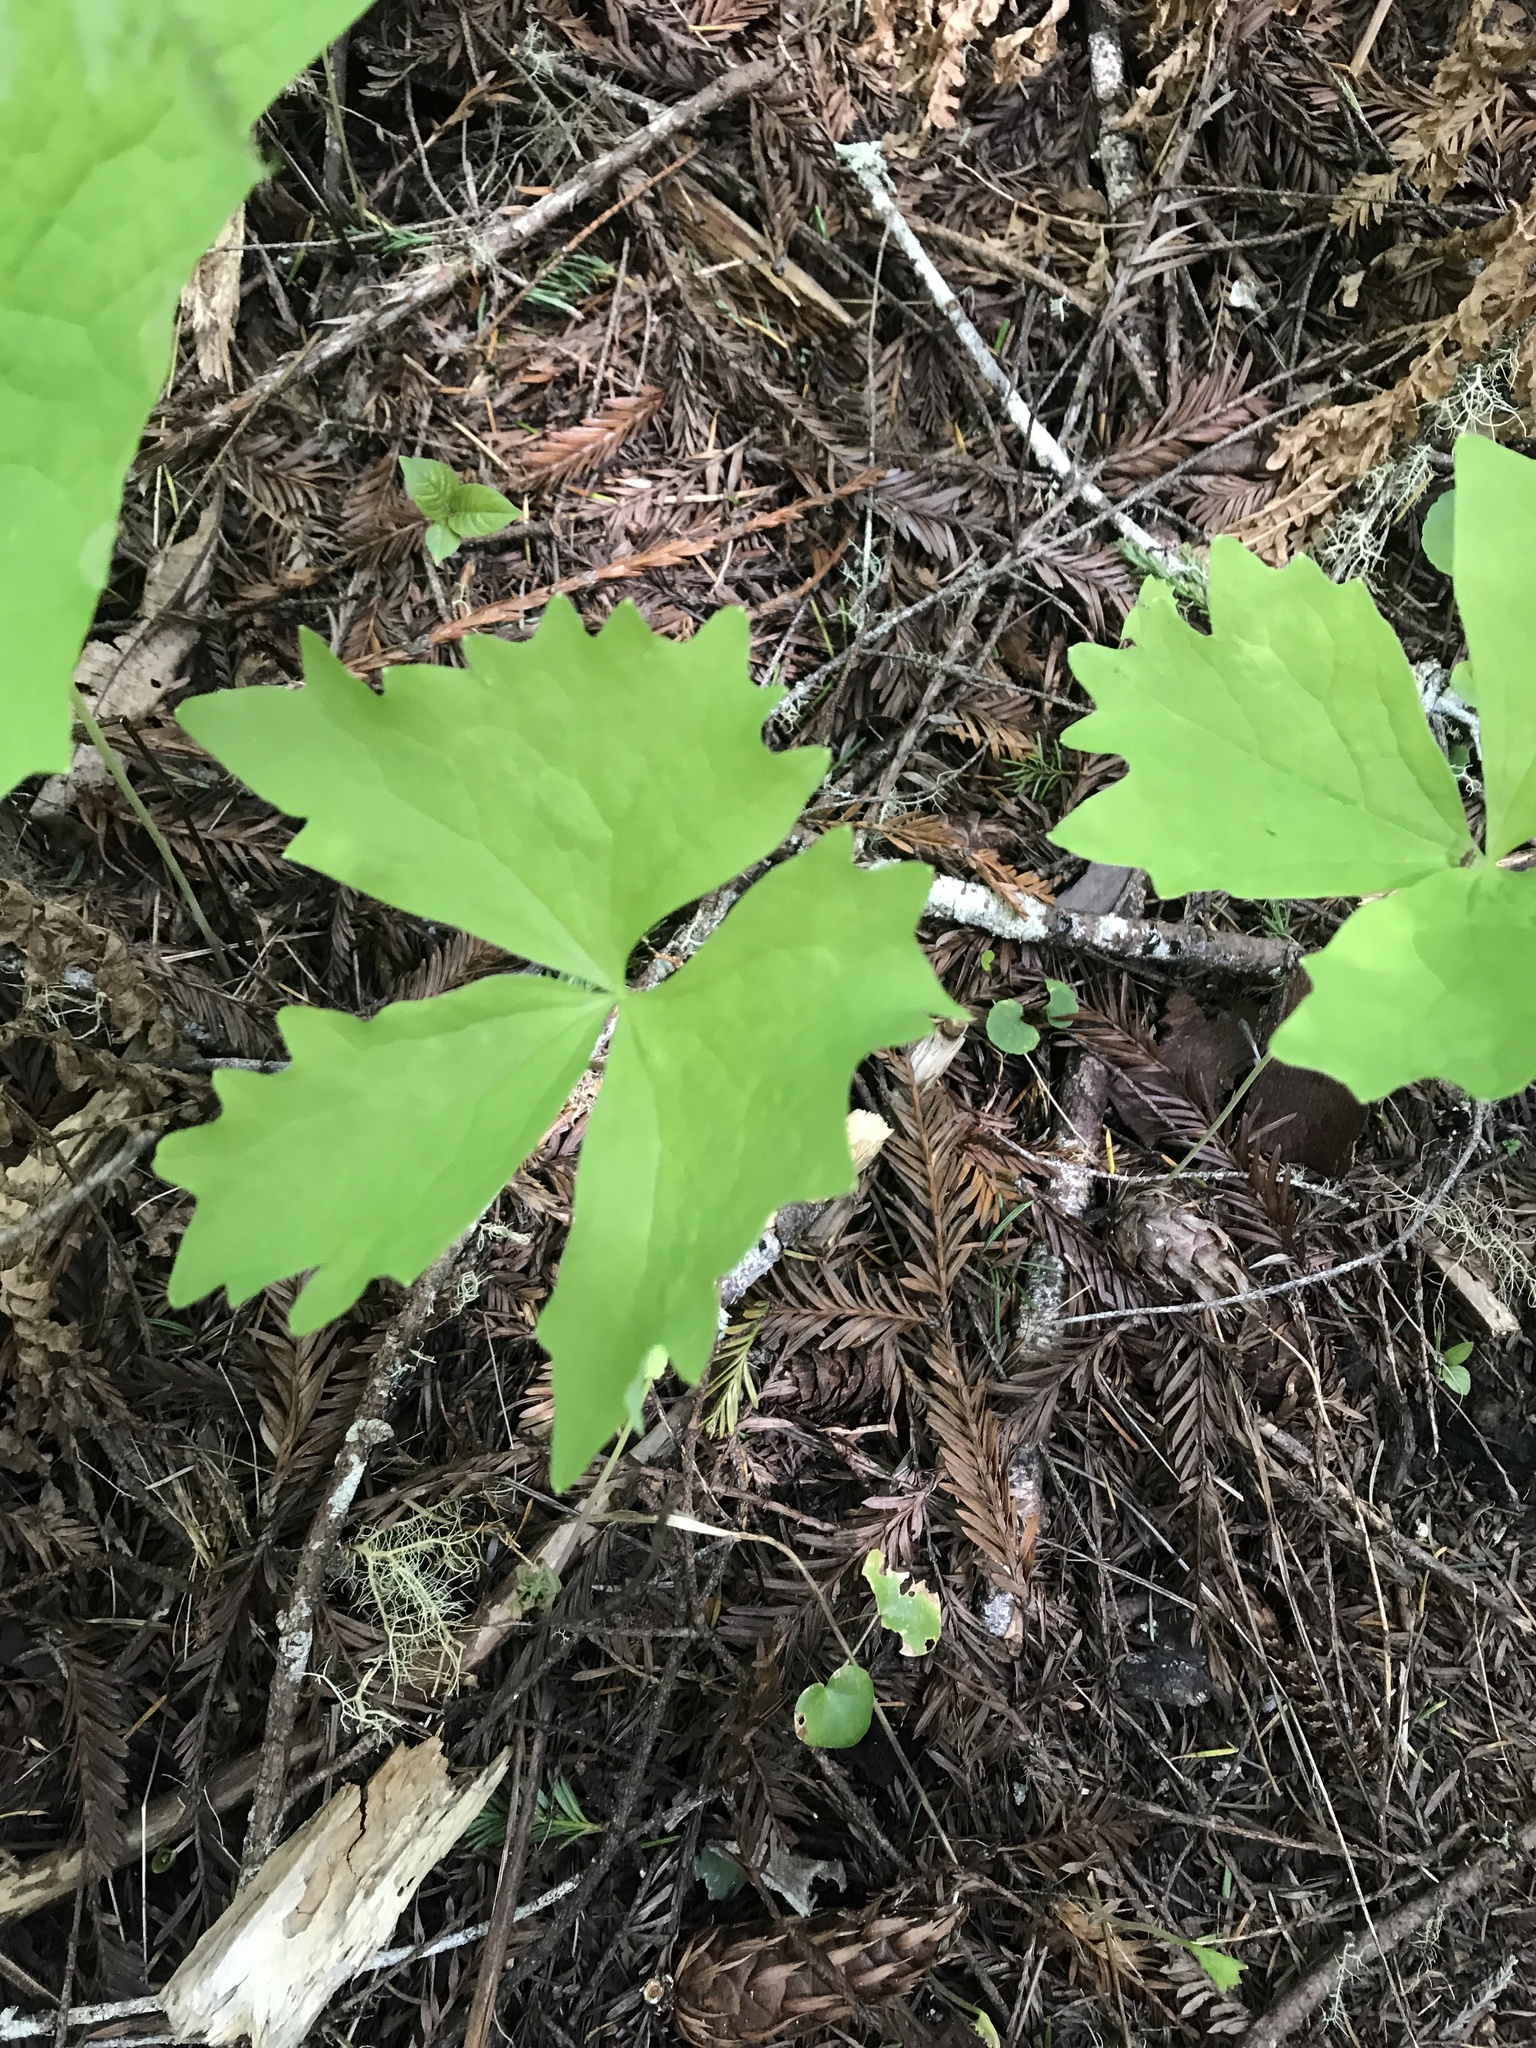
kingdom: Plantae
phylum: Tracheophyta
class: Magnoliopsida
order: Ranunculales
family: Berberidaceae
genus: Achlys
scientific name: Achlys triphylla
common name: Vanilla-leaf
